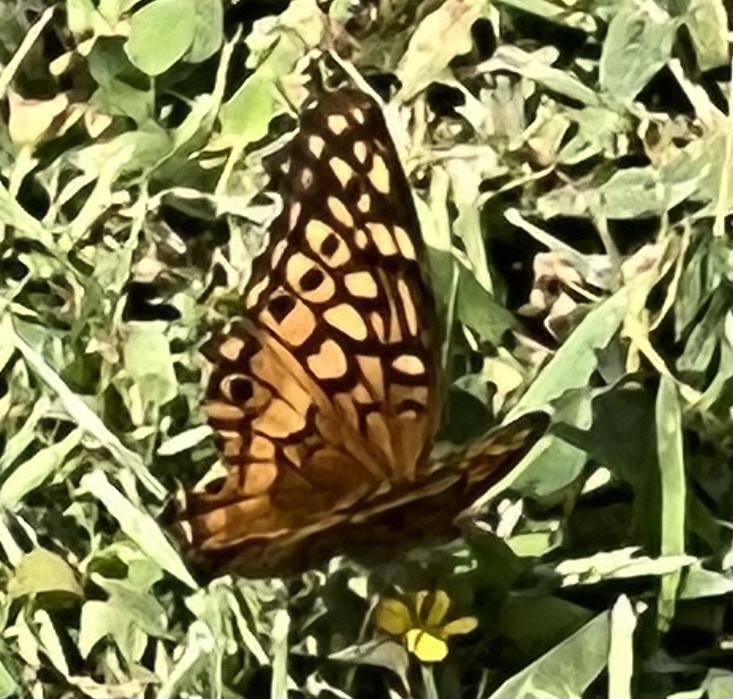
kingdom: Animalia
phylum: Arthropoda
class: Insecta
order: Lepidoptera
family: Nymphalidae
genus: Euptoieta
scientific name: Euptoieta claudia
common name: Variegated fritillary
